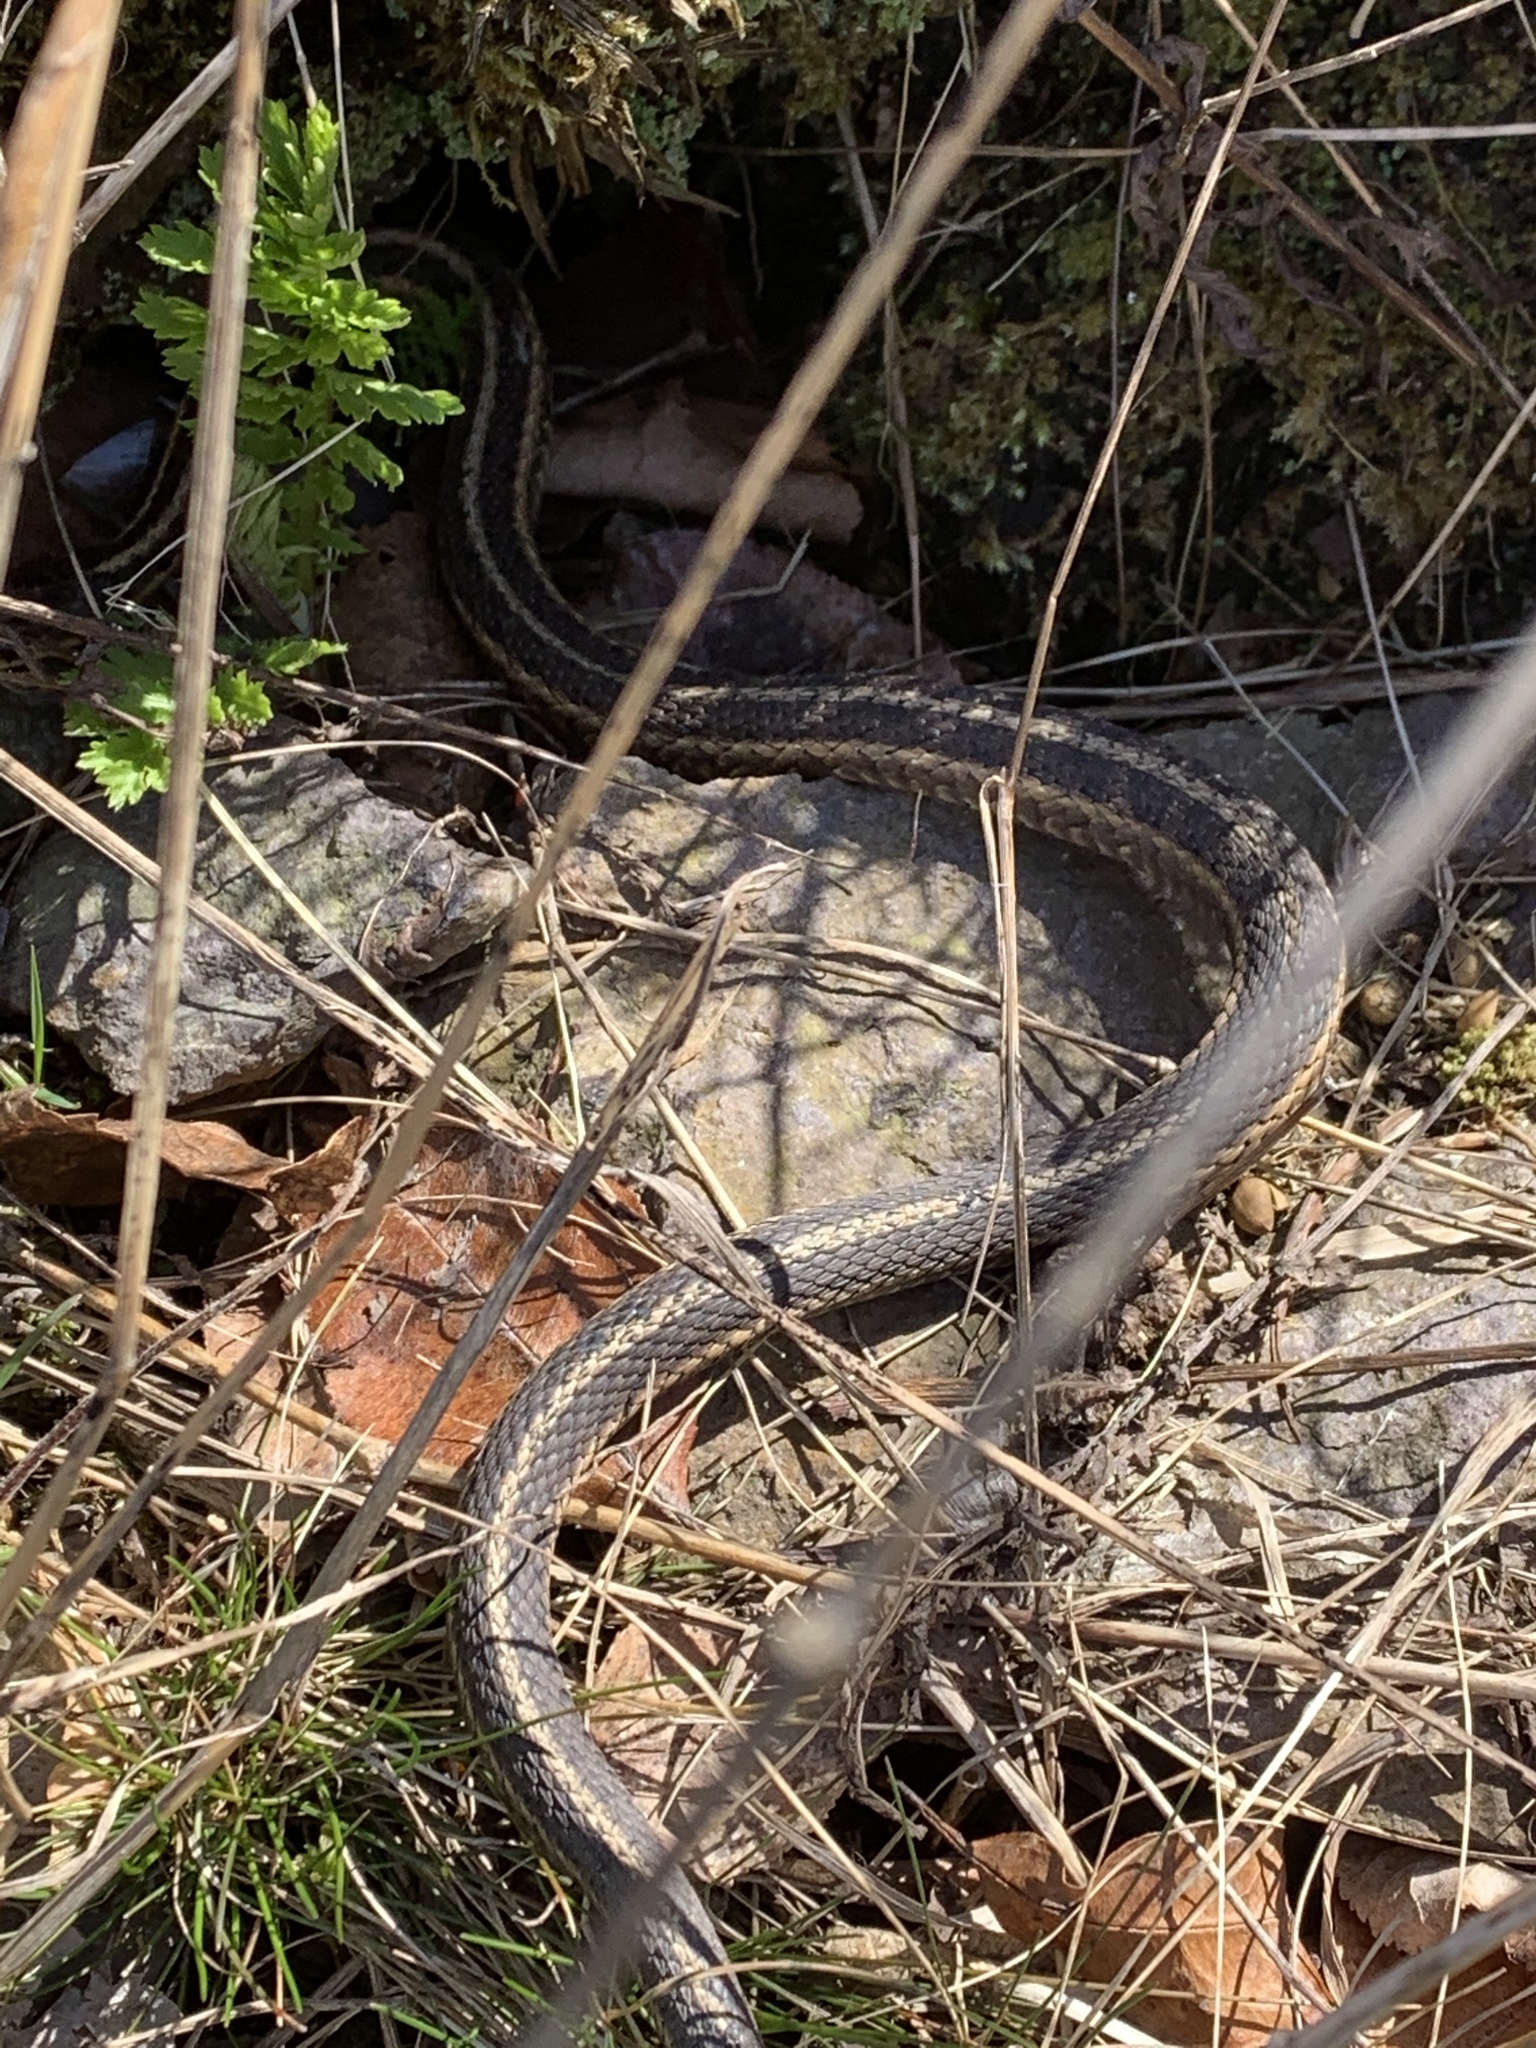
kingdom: Animalia
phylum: Chordata
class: Squamata
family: Colubridae
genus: Thamnophis
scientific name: Thamnophis sirtalis
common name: Common garter snake
